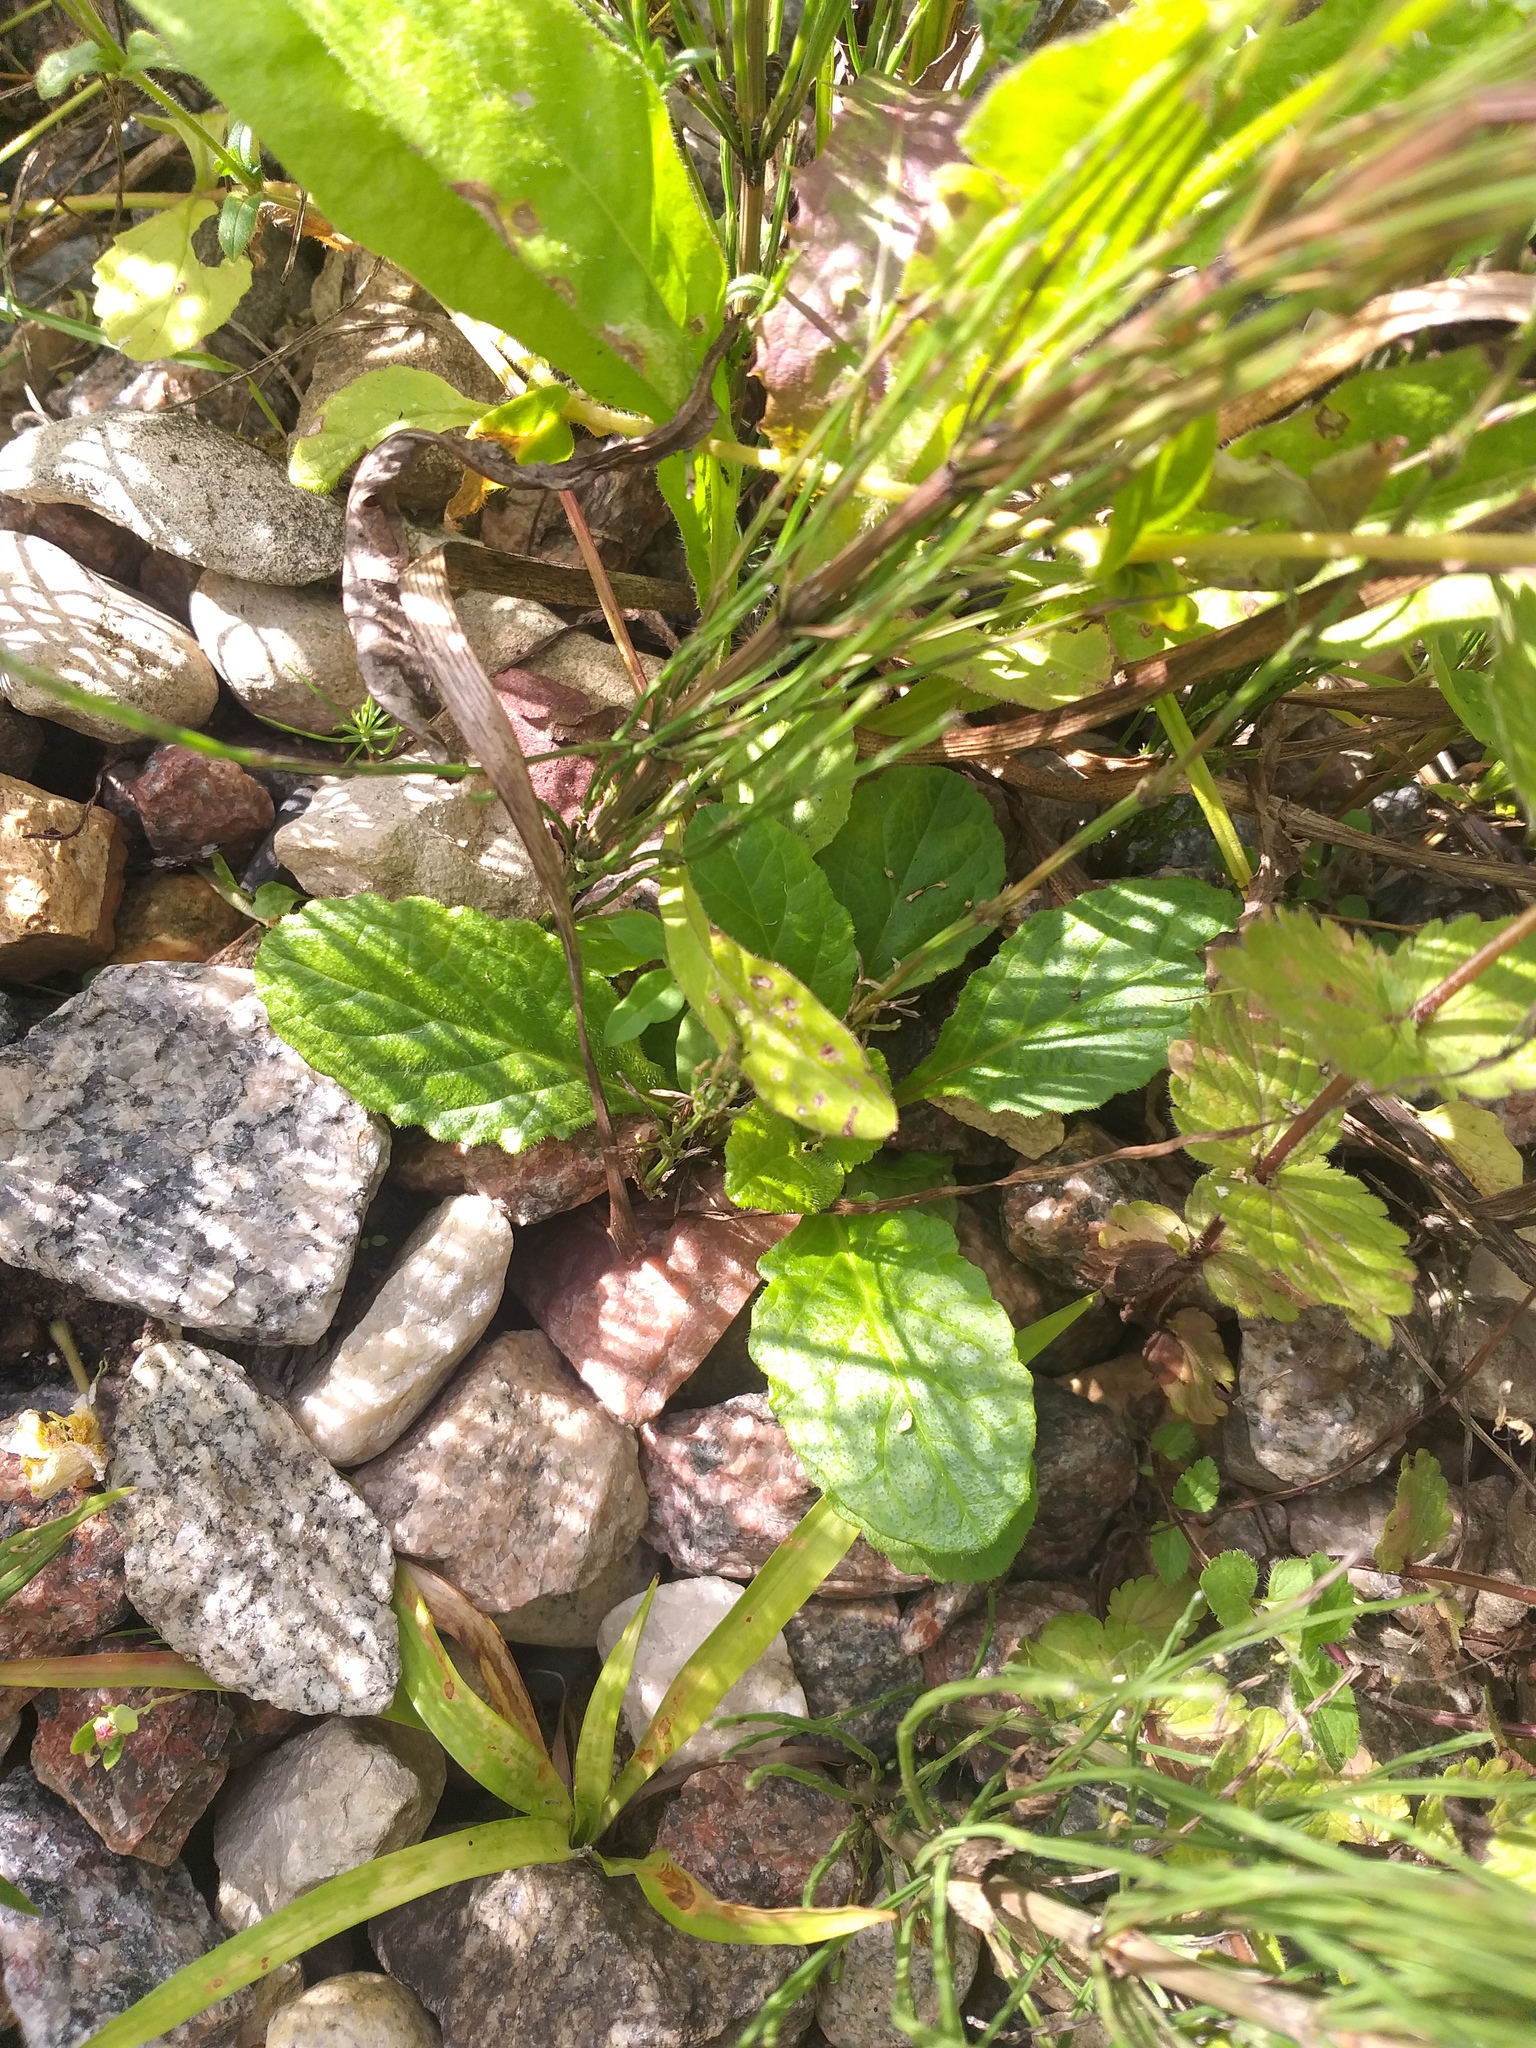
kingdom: Plantae
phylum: Tracheophyta
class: Magnoliopsida
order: Lamiales
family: Lamiaceae
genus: Ajuga
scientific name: Ajuga reptans
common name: Bugle
